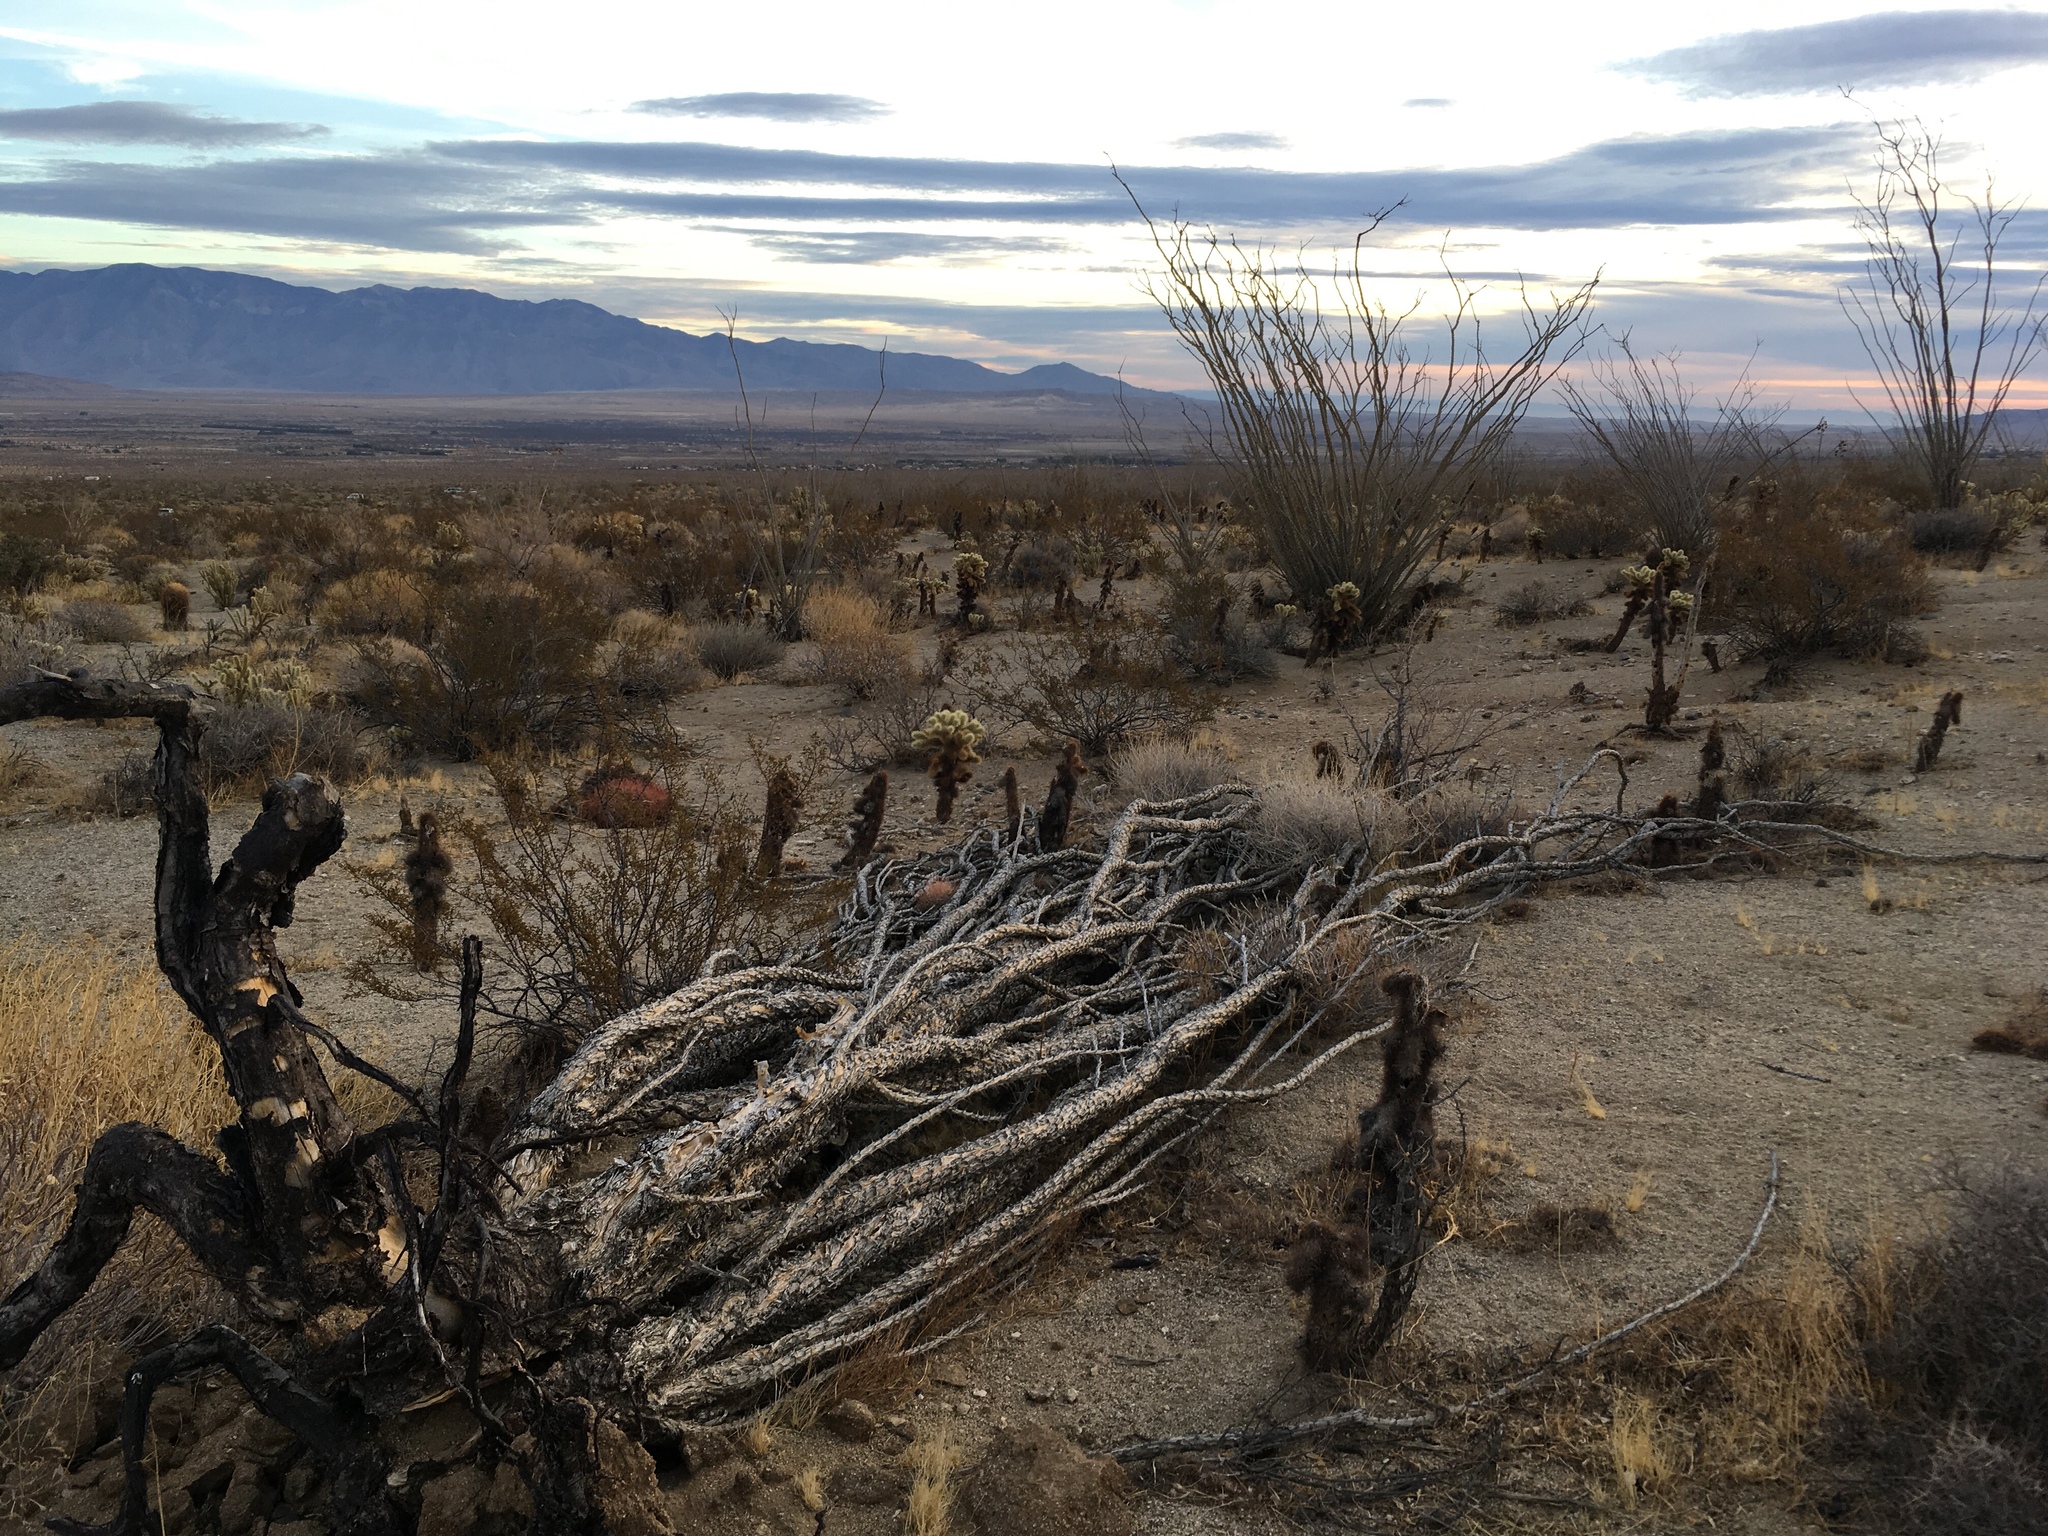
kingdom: Plantae
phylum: Tracheophyta
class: Magnoliopsida
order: Ericales
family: Fouquieriaceae
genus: Fouquieria
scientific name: Fouquieria splendens
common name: Vine-cactus
